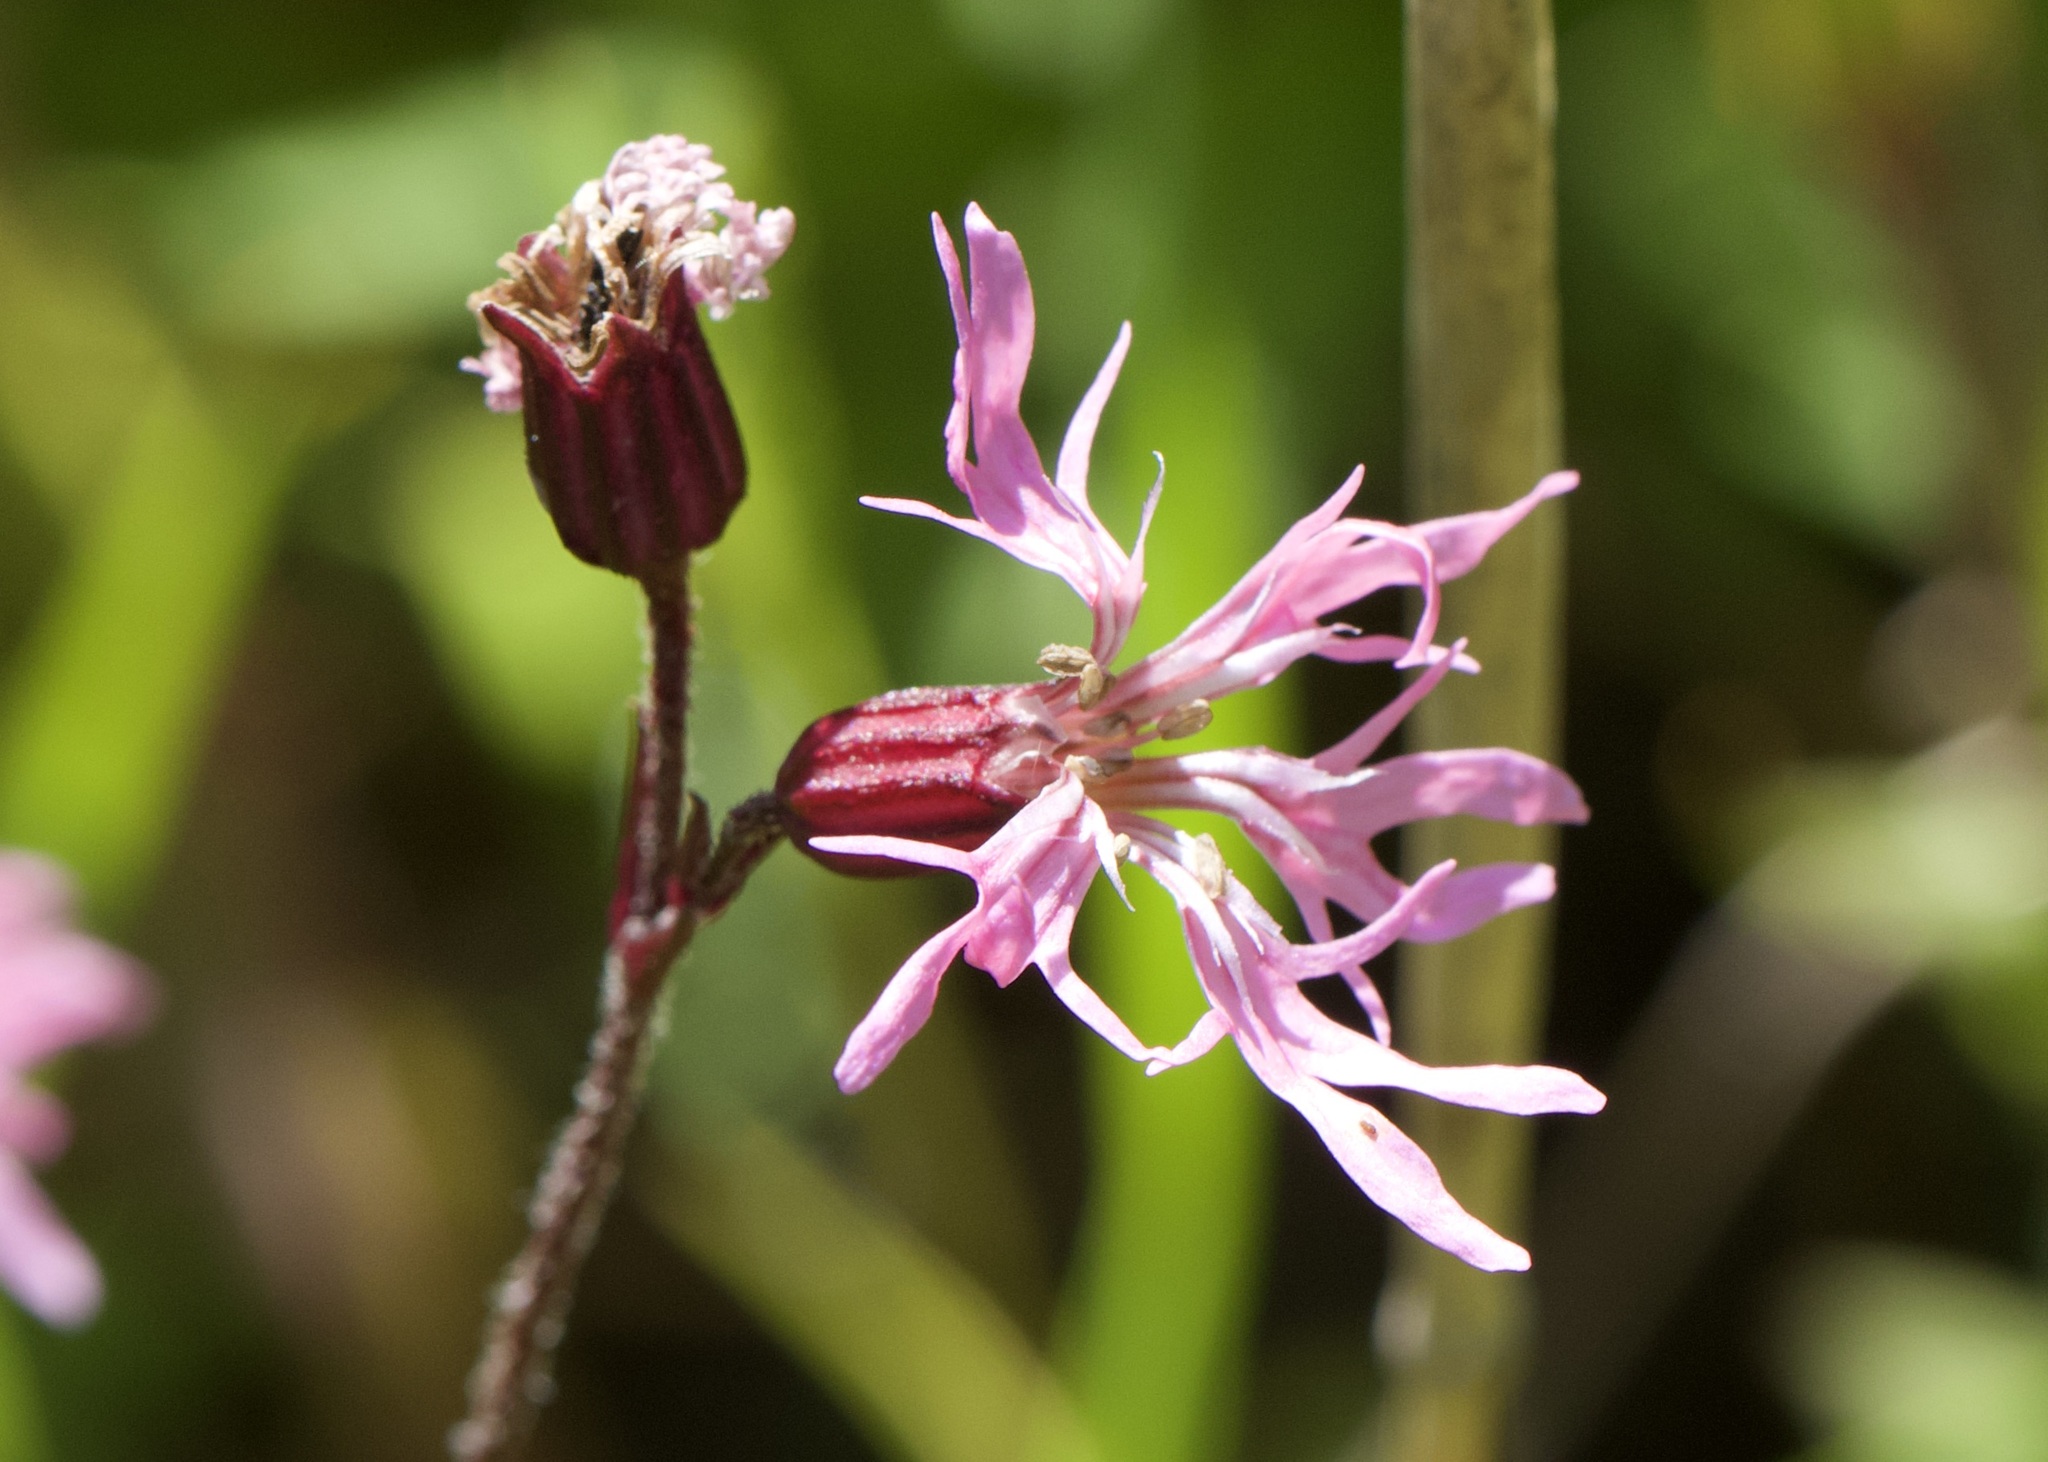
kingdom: Plantae
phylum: Tracheophyta
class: Magnoliopsida
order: Caryophyllales
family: Caryophyllaceae
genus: Silene
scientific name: Silene flos-cuculi
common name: Ragged-robin
